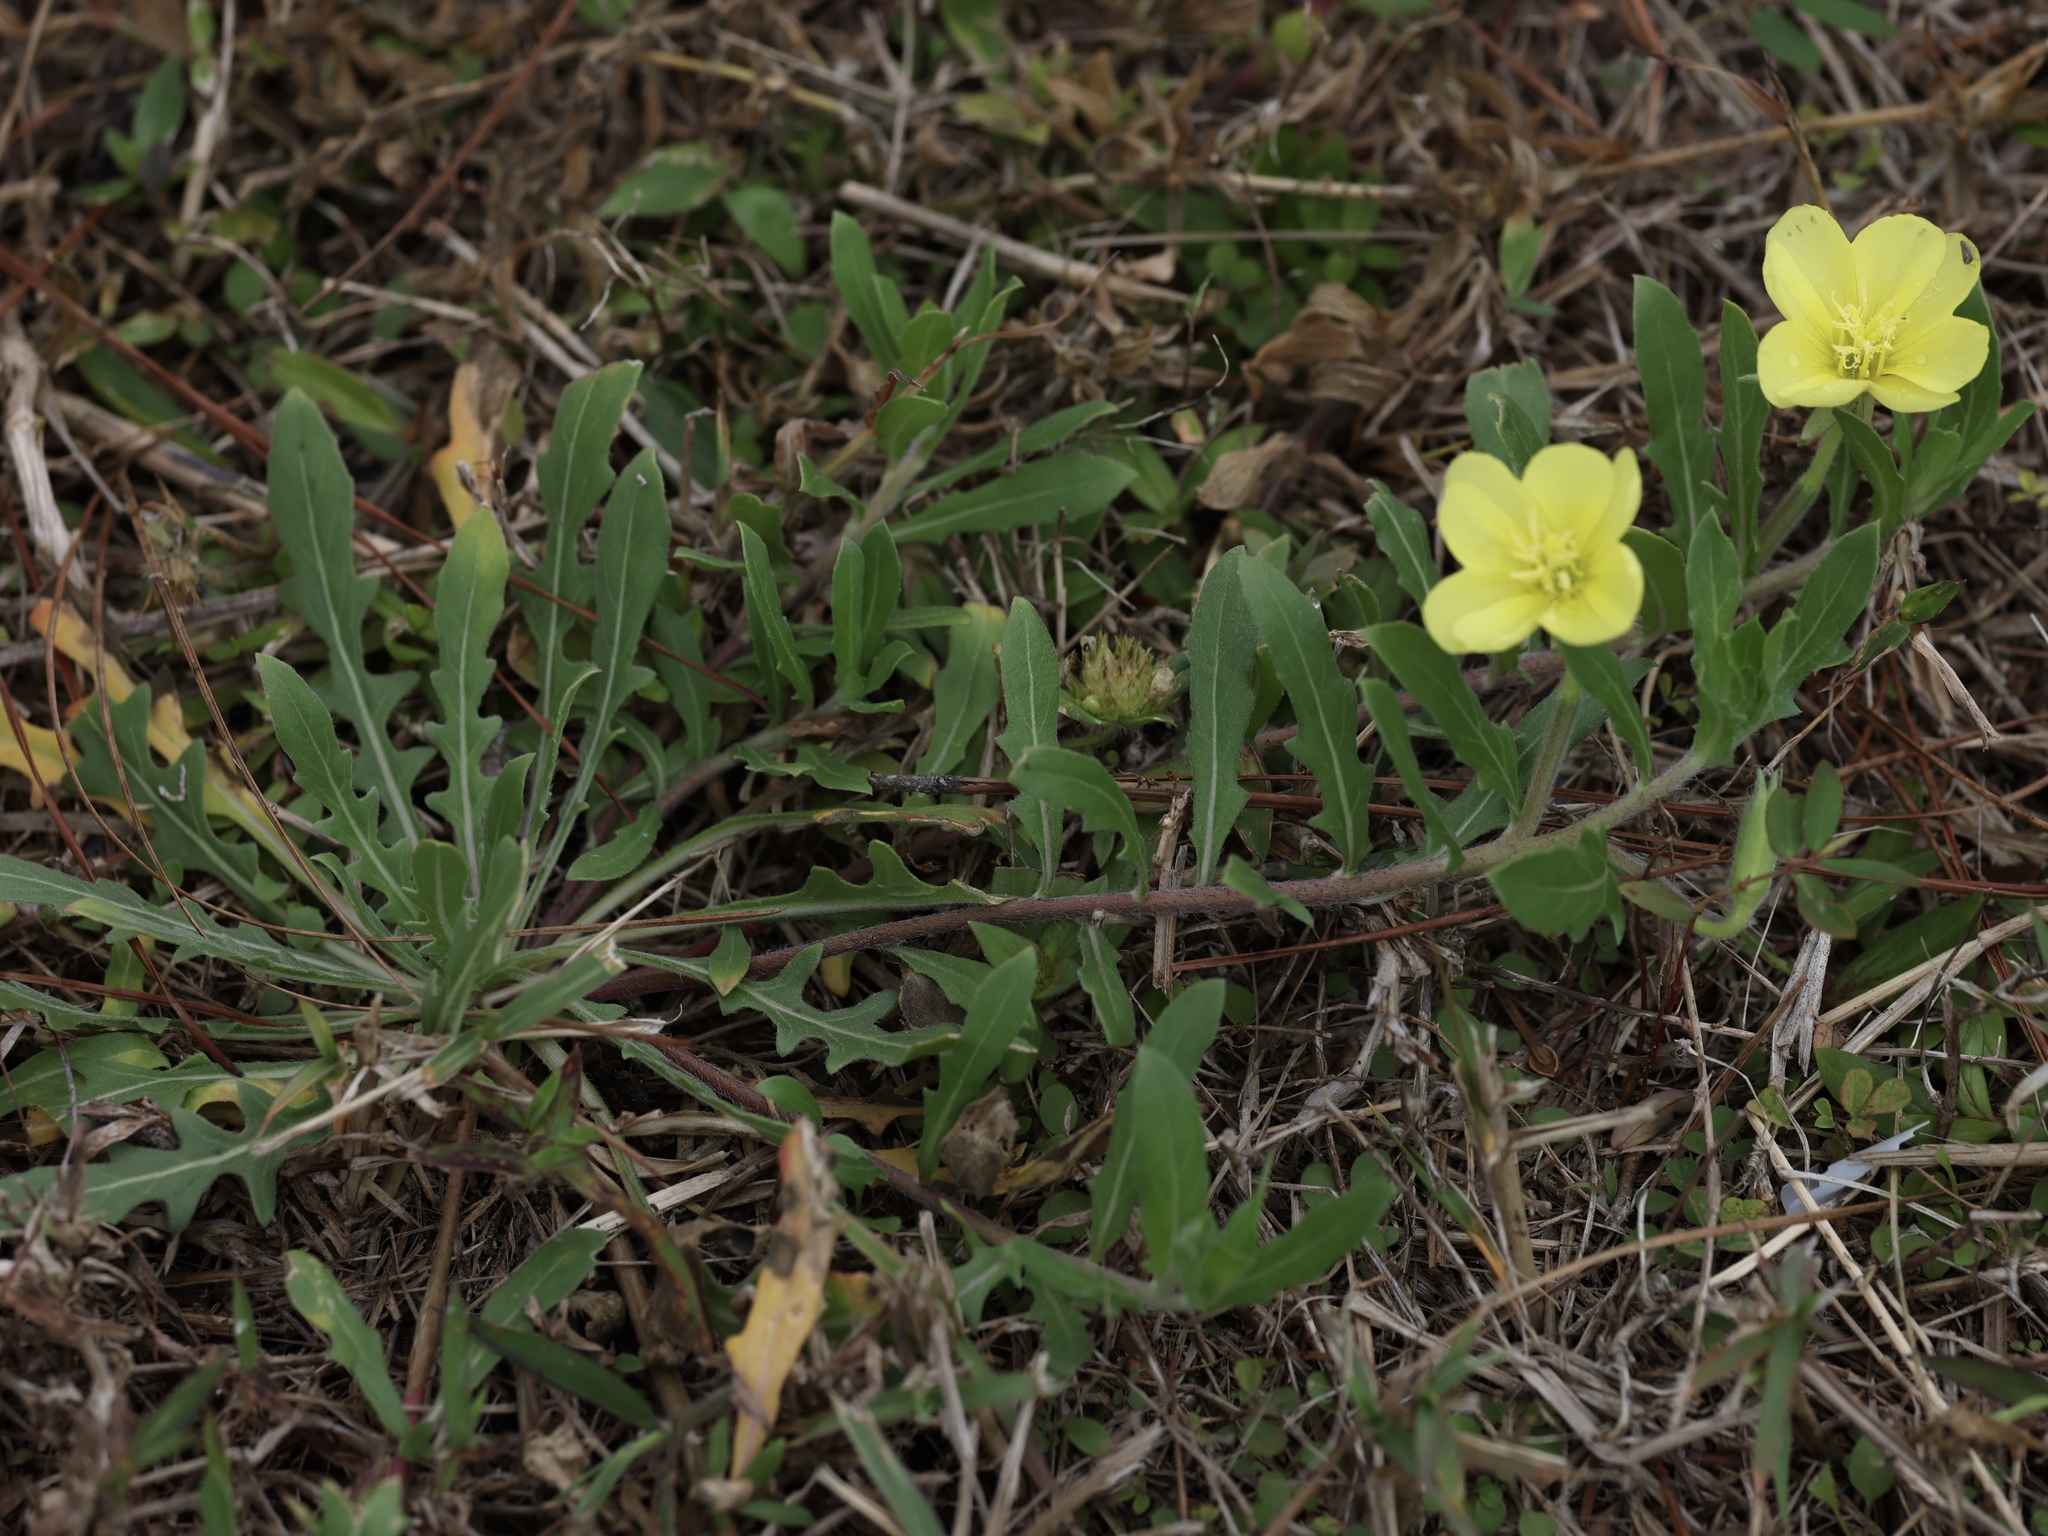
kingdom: Plantae
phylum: Tracheophyta
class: Magnoliopsida
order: Myrtales
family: Onagraceae
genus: Oenothera
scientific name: Oenothera laciniata
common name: Cut-leaved evening-primrose
